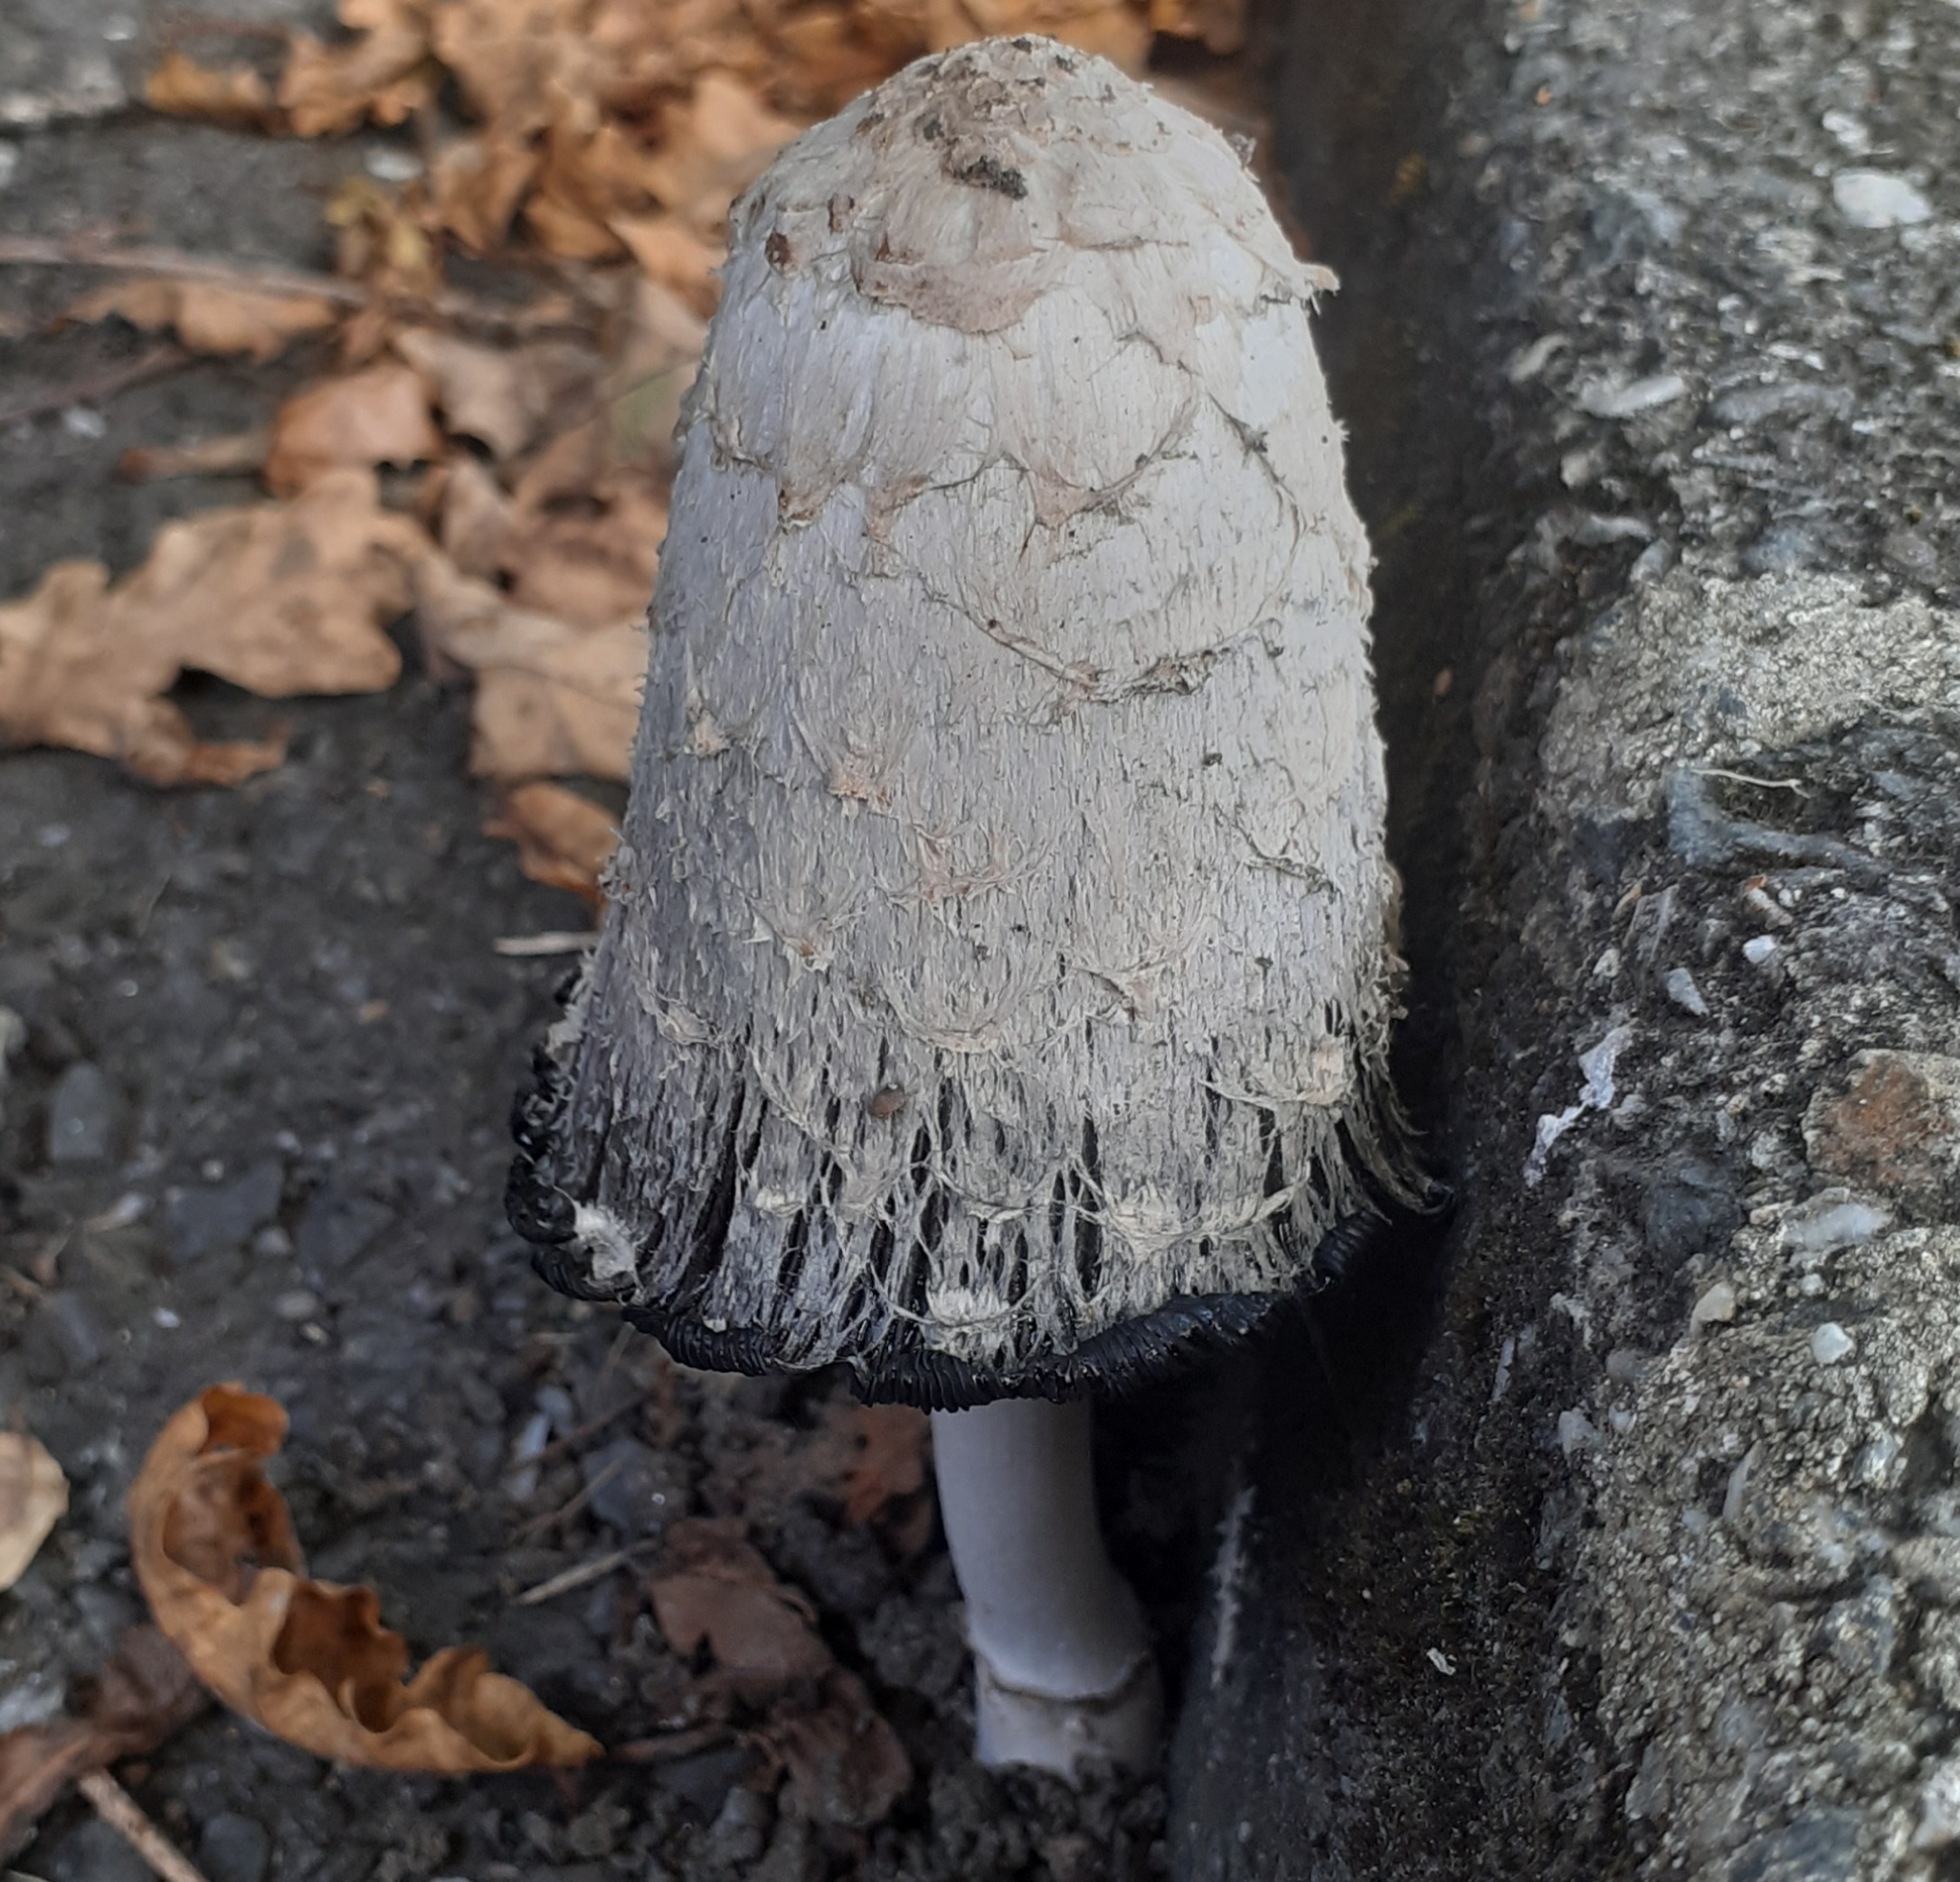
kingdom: Fungi
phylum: Basidiomycota
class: Agaricomycetes
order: Agaricales
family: Agaricaceae
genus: Coprinus
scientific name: Coprinus comatus
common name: Lawyer's wig
